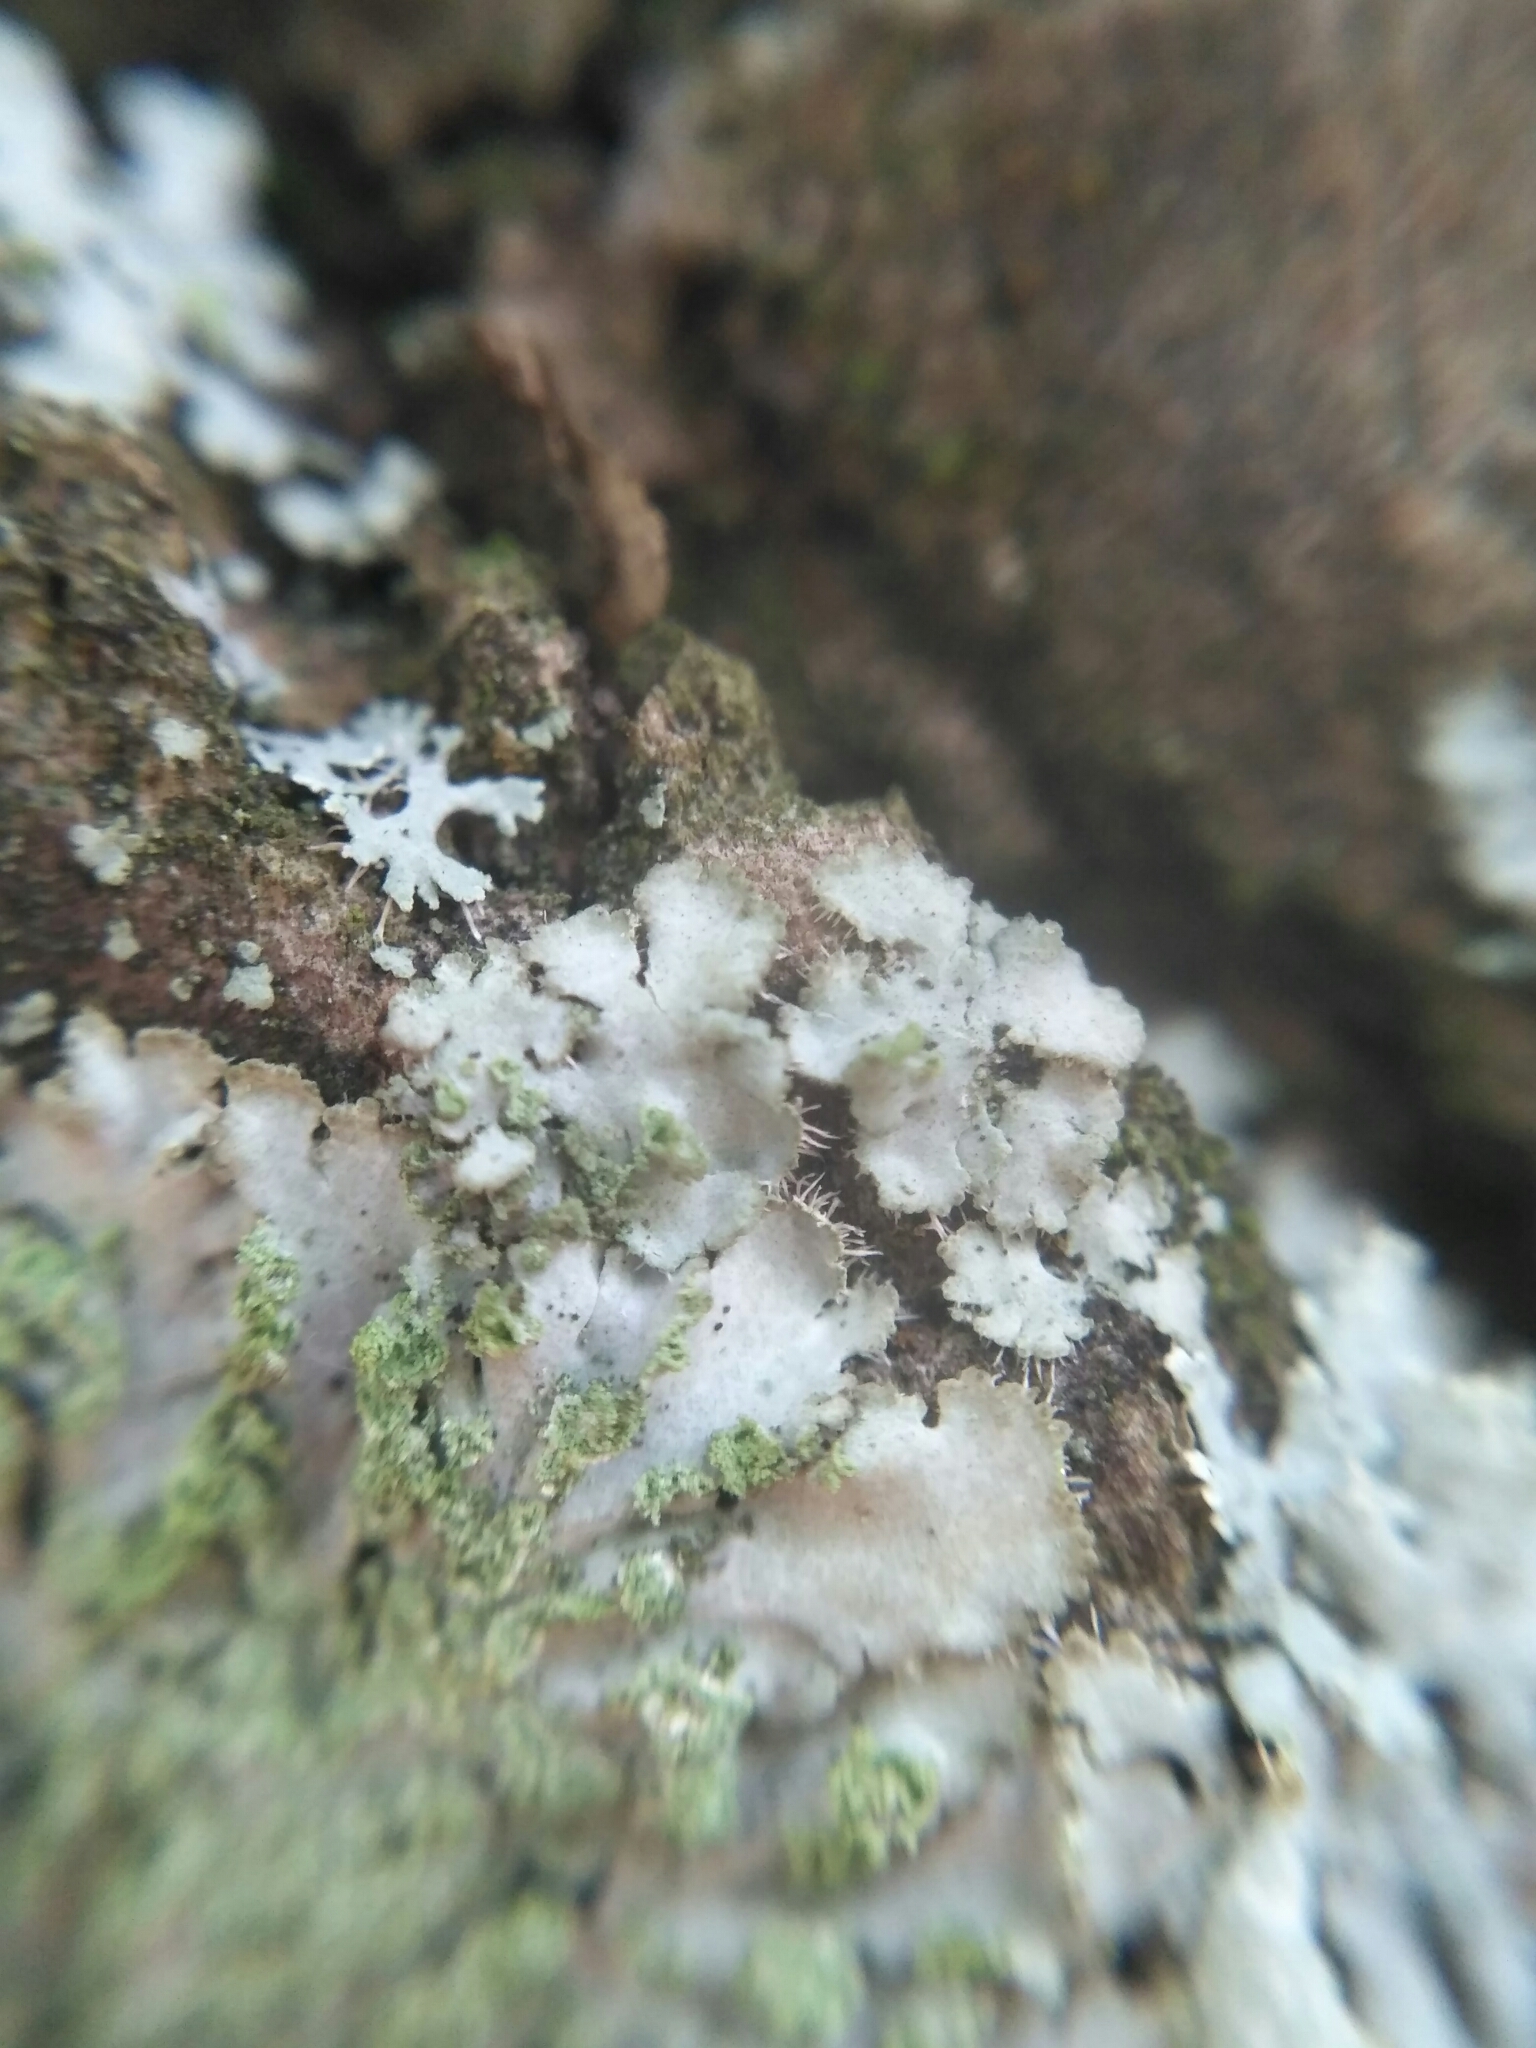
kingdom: Fungi
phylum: Ascomycota
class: Lecanoromycetes
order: Caliciales
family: Physciaceae
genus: Phaeophyscia
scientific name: Phaeophyscia orbicularis
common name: Mealy shadow lichen
